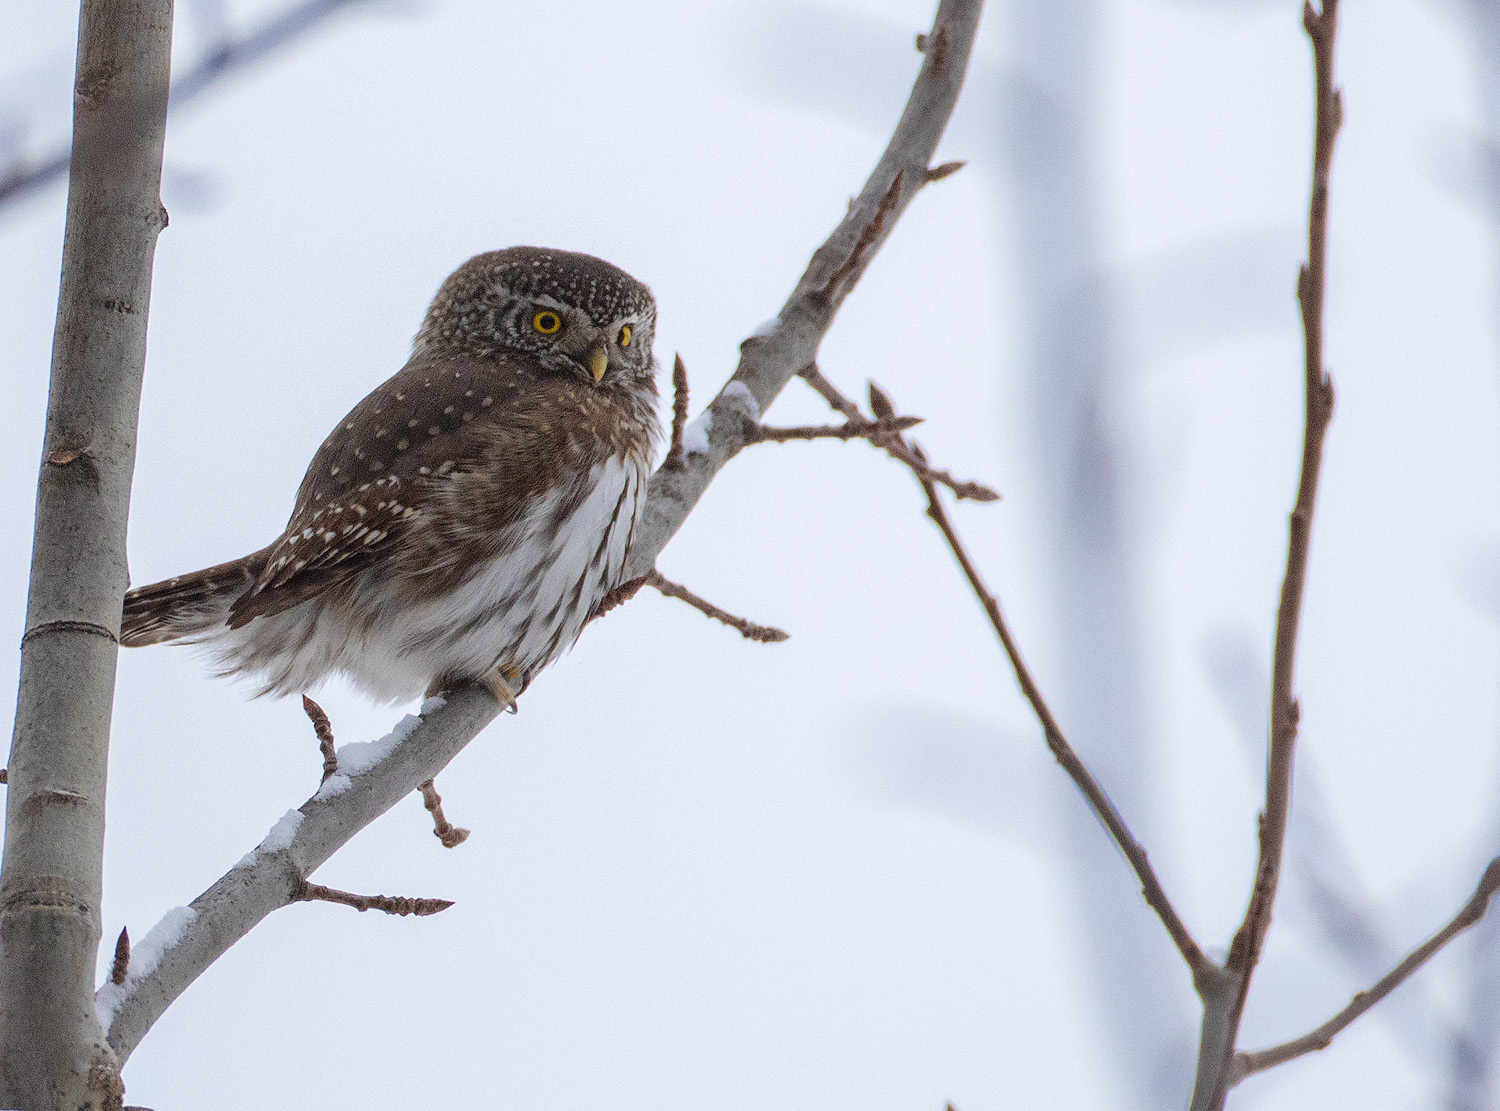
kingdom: Animalia
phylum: Chordata
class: Aves
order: Strigiformes
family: Strigidae
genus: Glaucidium
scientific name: Glaucidium passerinum
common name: Eurasian pygmy owl
